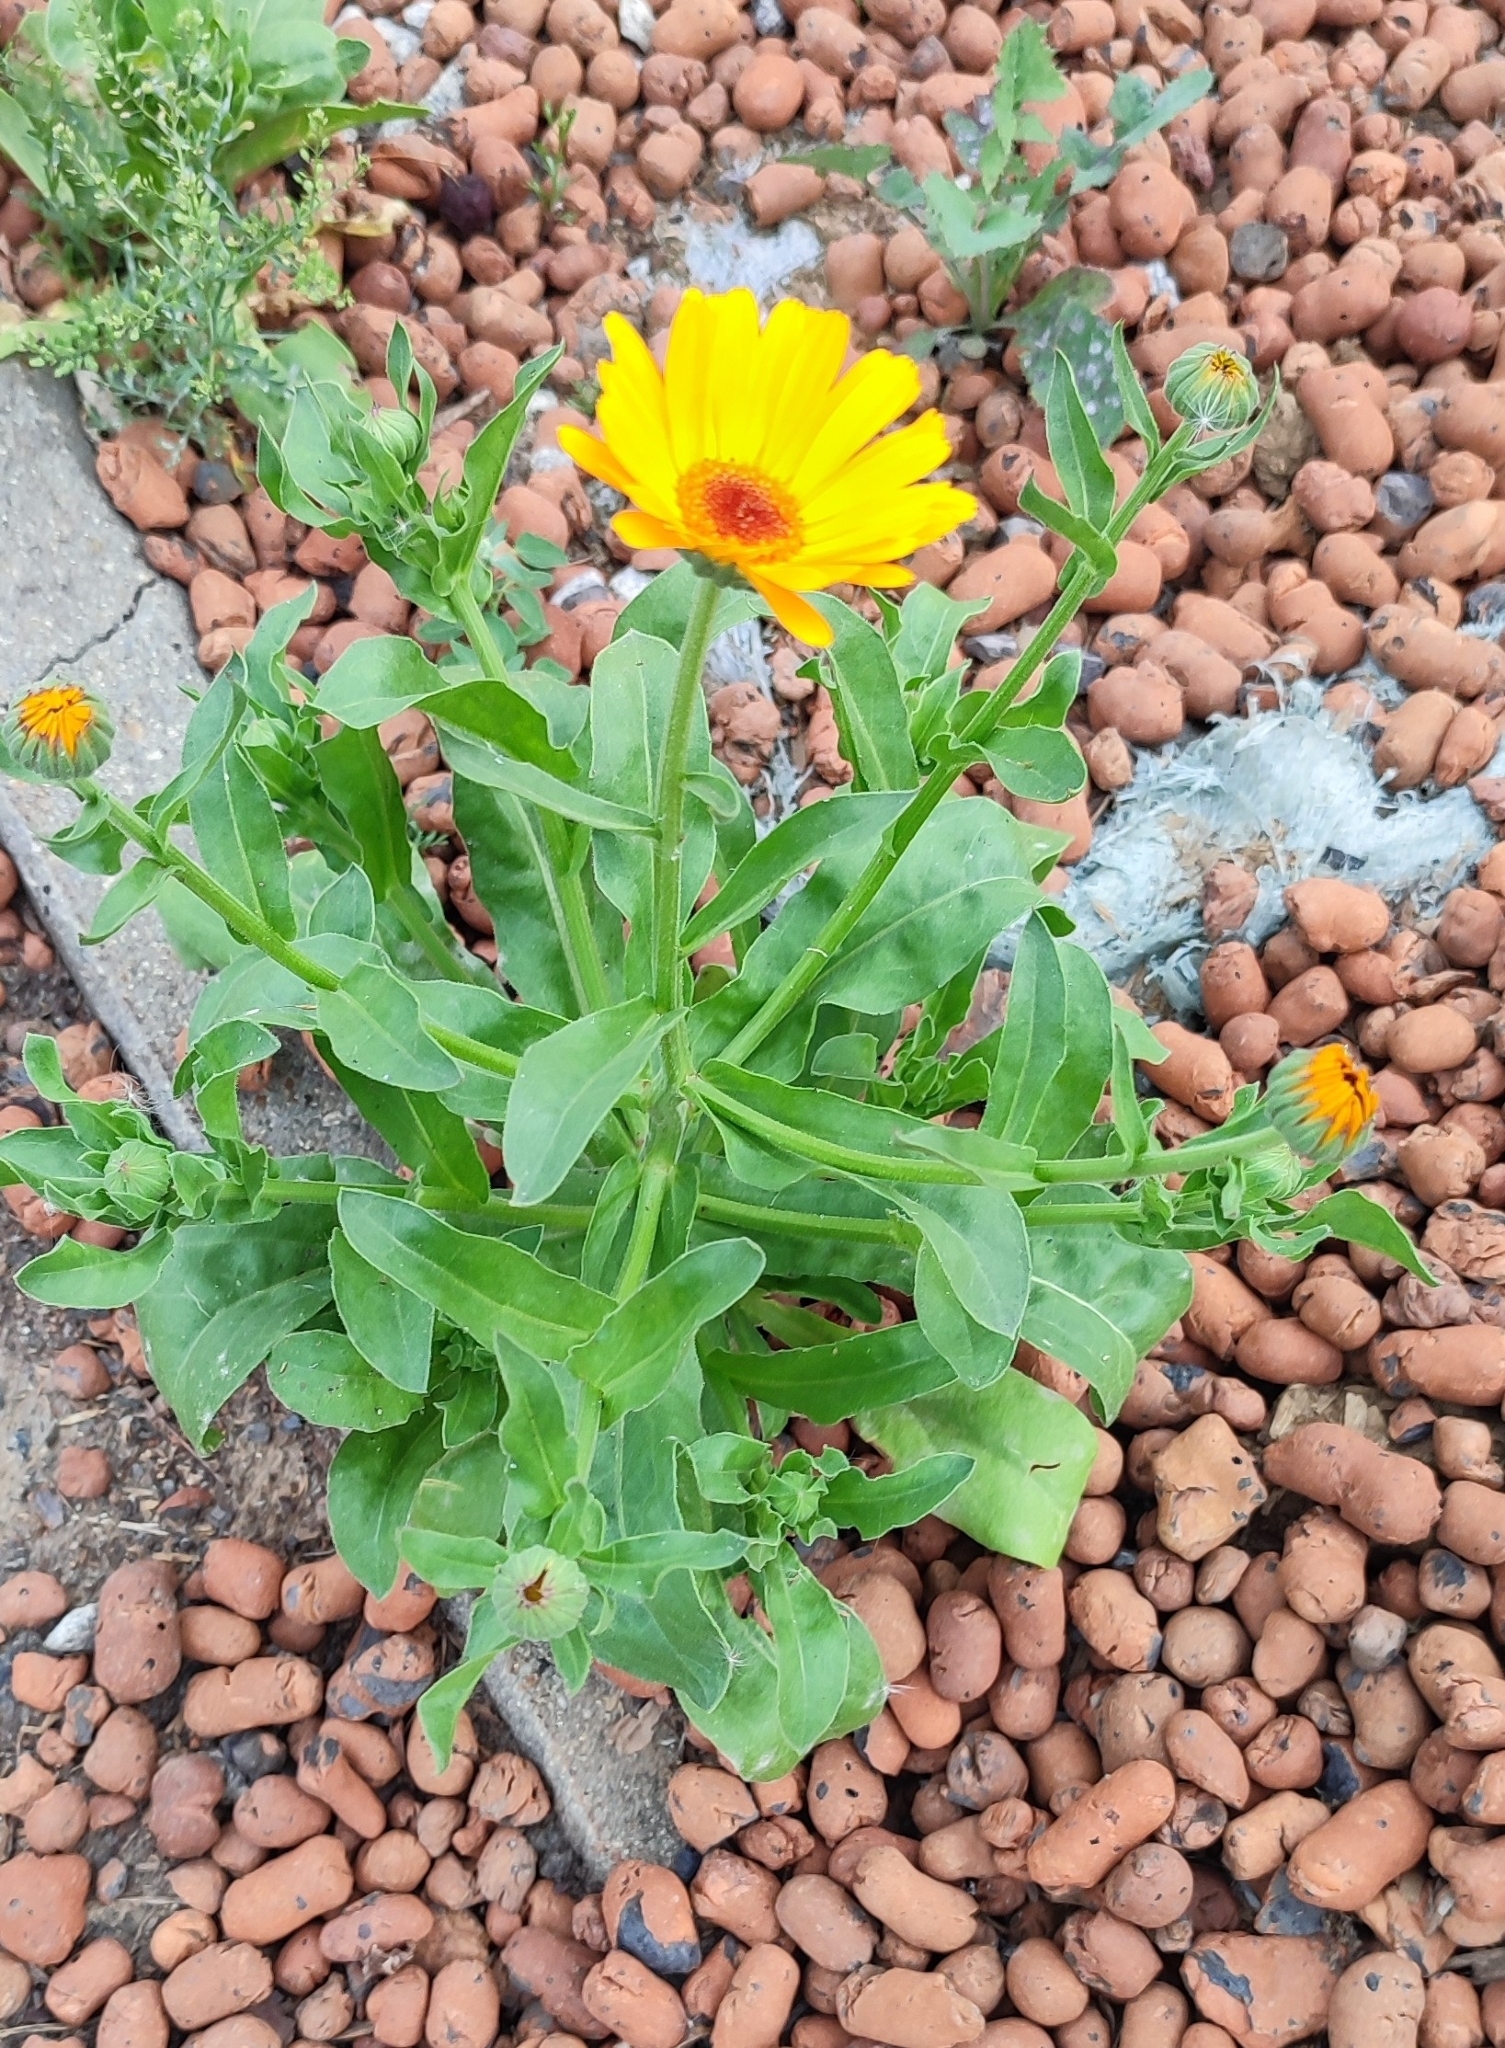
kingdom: Plantae
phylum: Tracheophyta
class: Magnoliopsida
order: Asterales
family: Asteraceae
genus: Calendula
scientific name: Calendula officinalis
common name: Pot marigold
